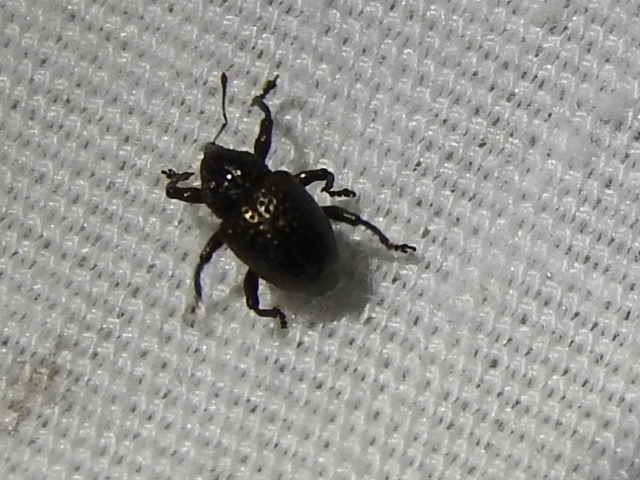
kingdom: Animalia
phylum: Arthropoda
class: Insecta
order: Coleoptera
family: Curculionidae
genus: Chalcodermus
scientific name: Chalcodermus collaris
